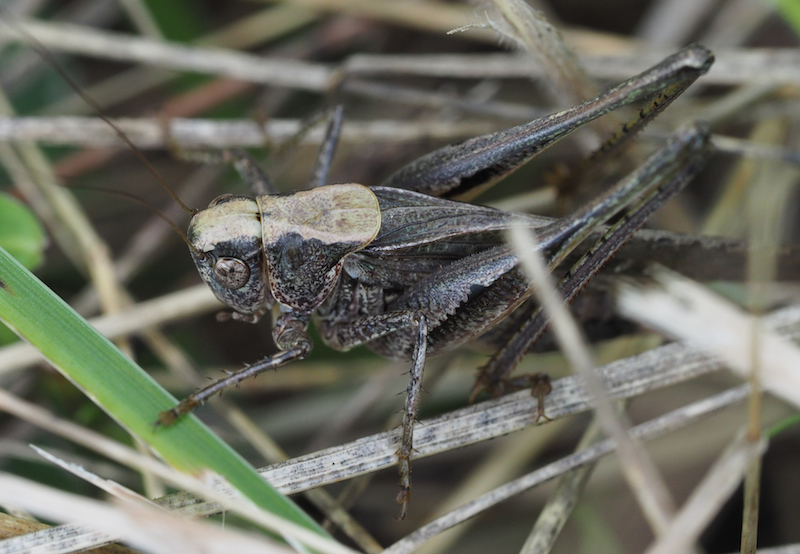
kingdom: Animalia
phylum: Arthropoda
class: Insecta
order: Orthoptera
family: Tettigoniidae
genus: Platycleis
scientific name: Platycleis grisea
